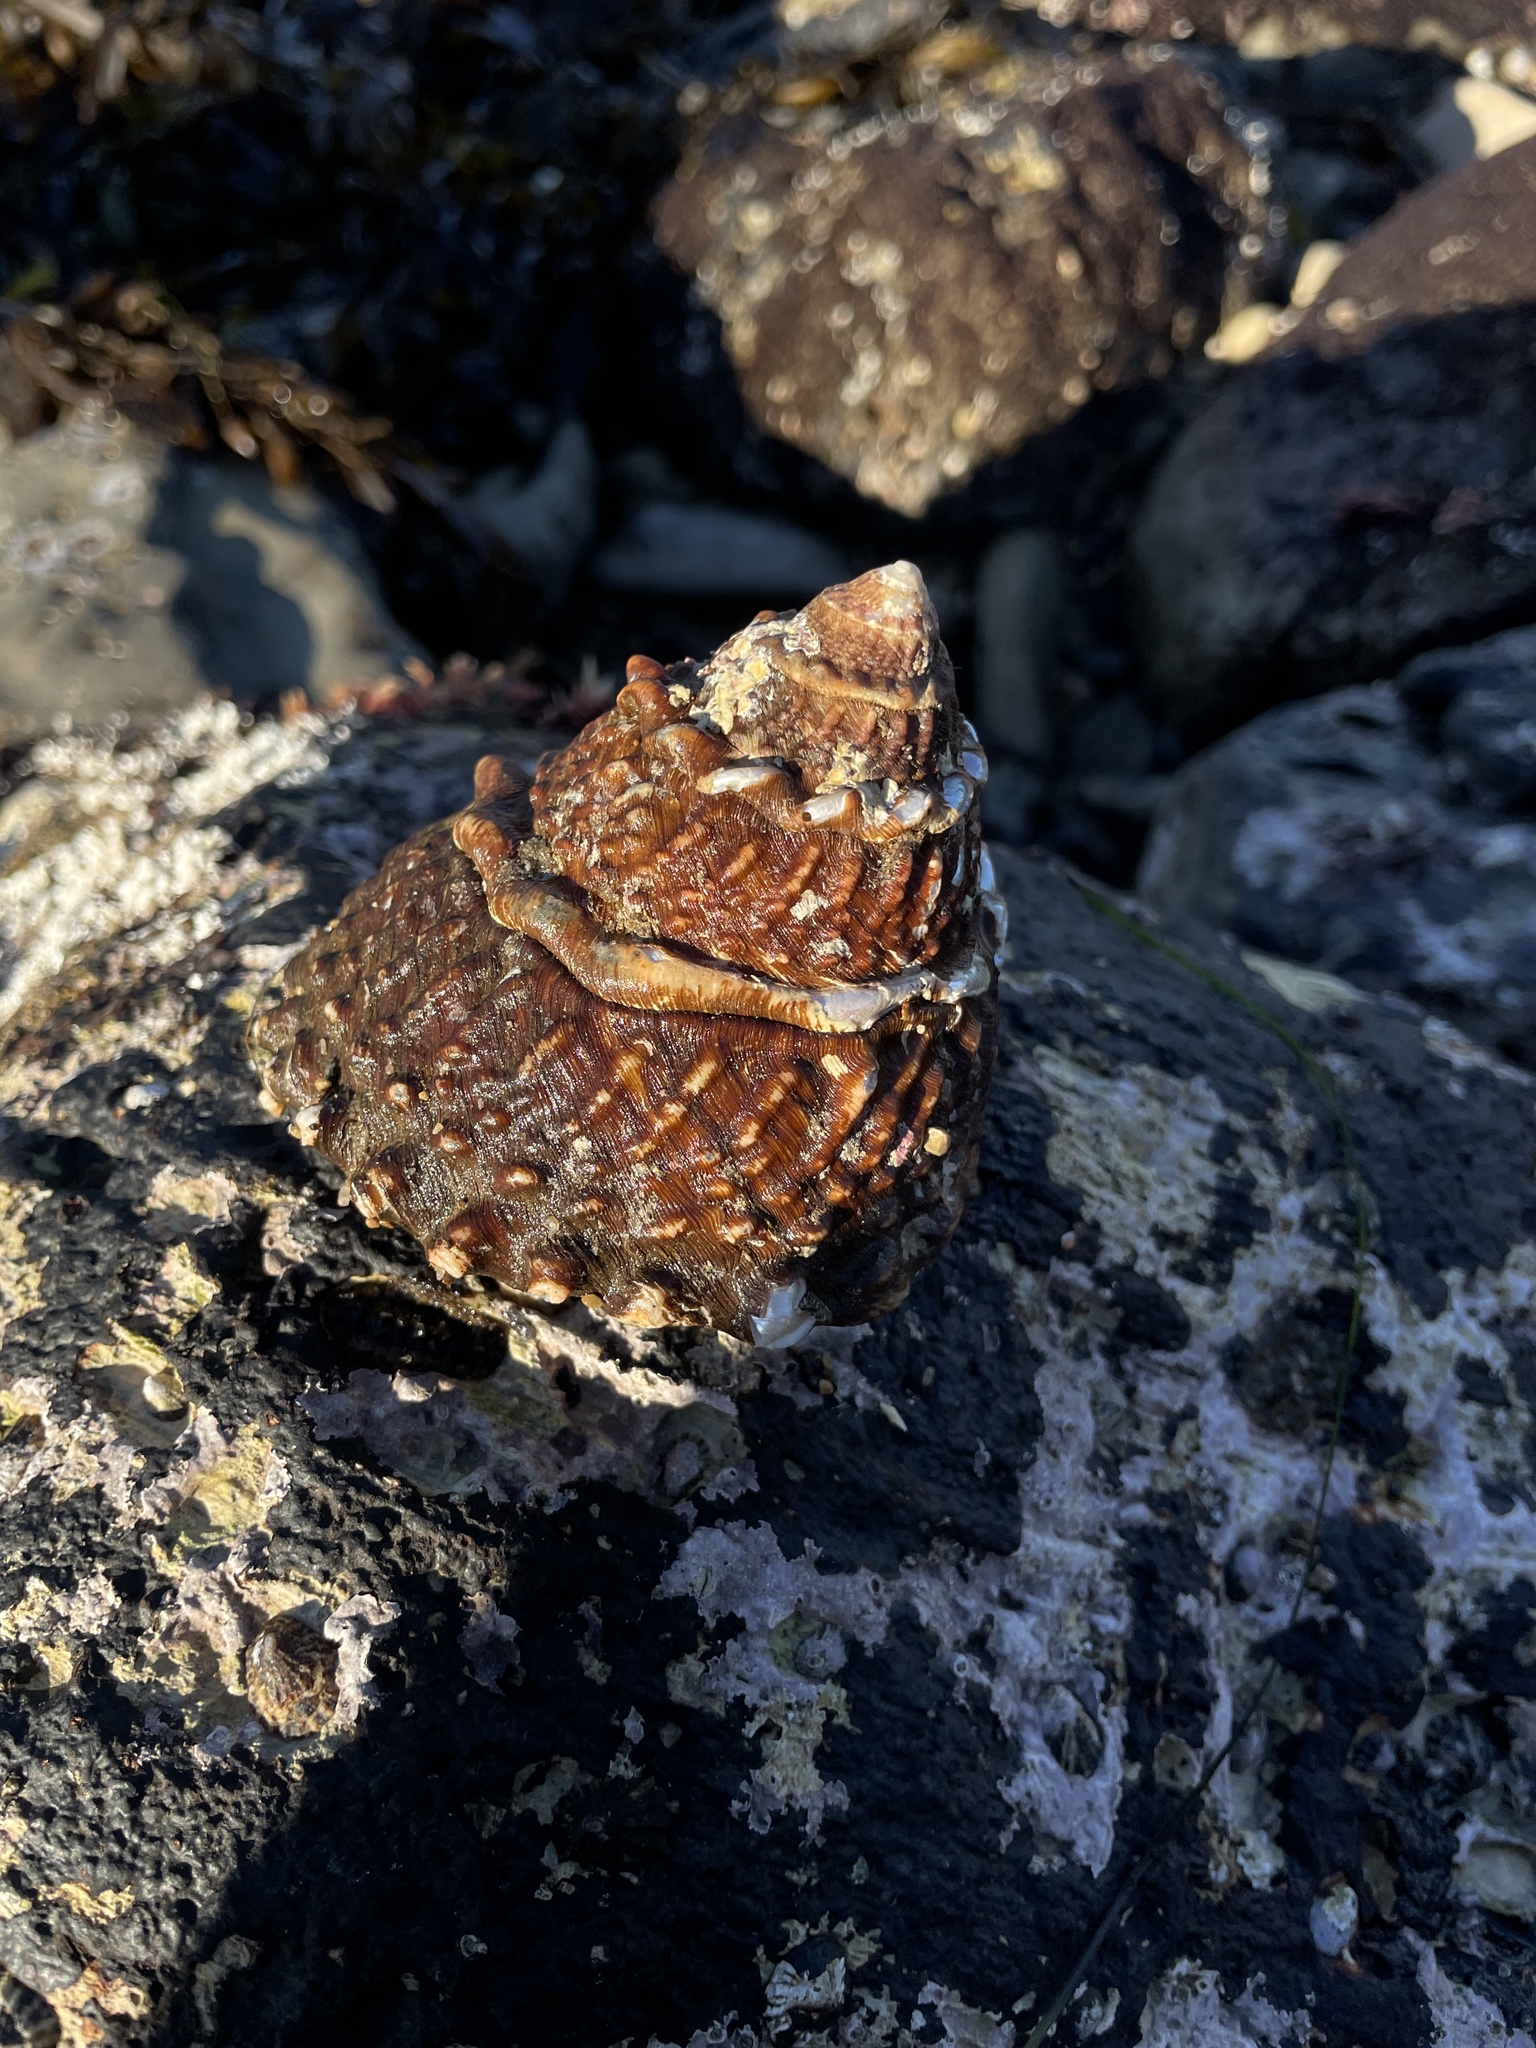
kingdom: Animalia
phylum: Mollusca
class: Gastropoda
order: Trochida
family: Turbinidae
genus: Megastraea
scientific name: Megastraea undosa
